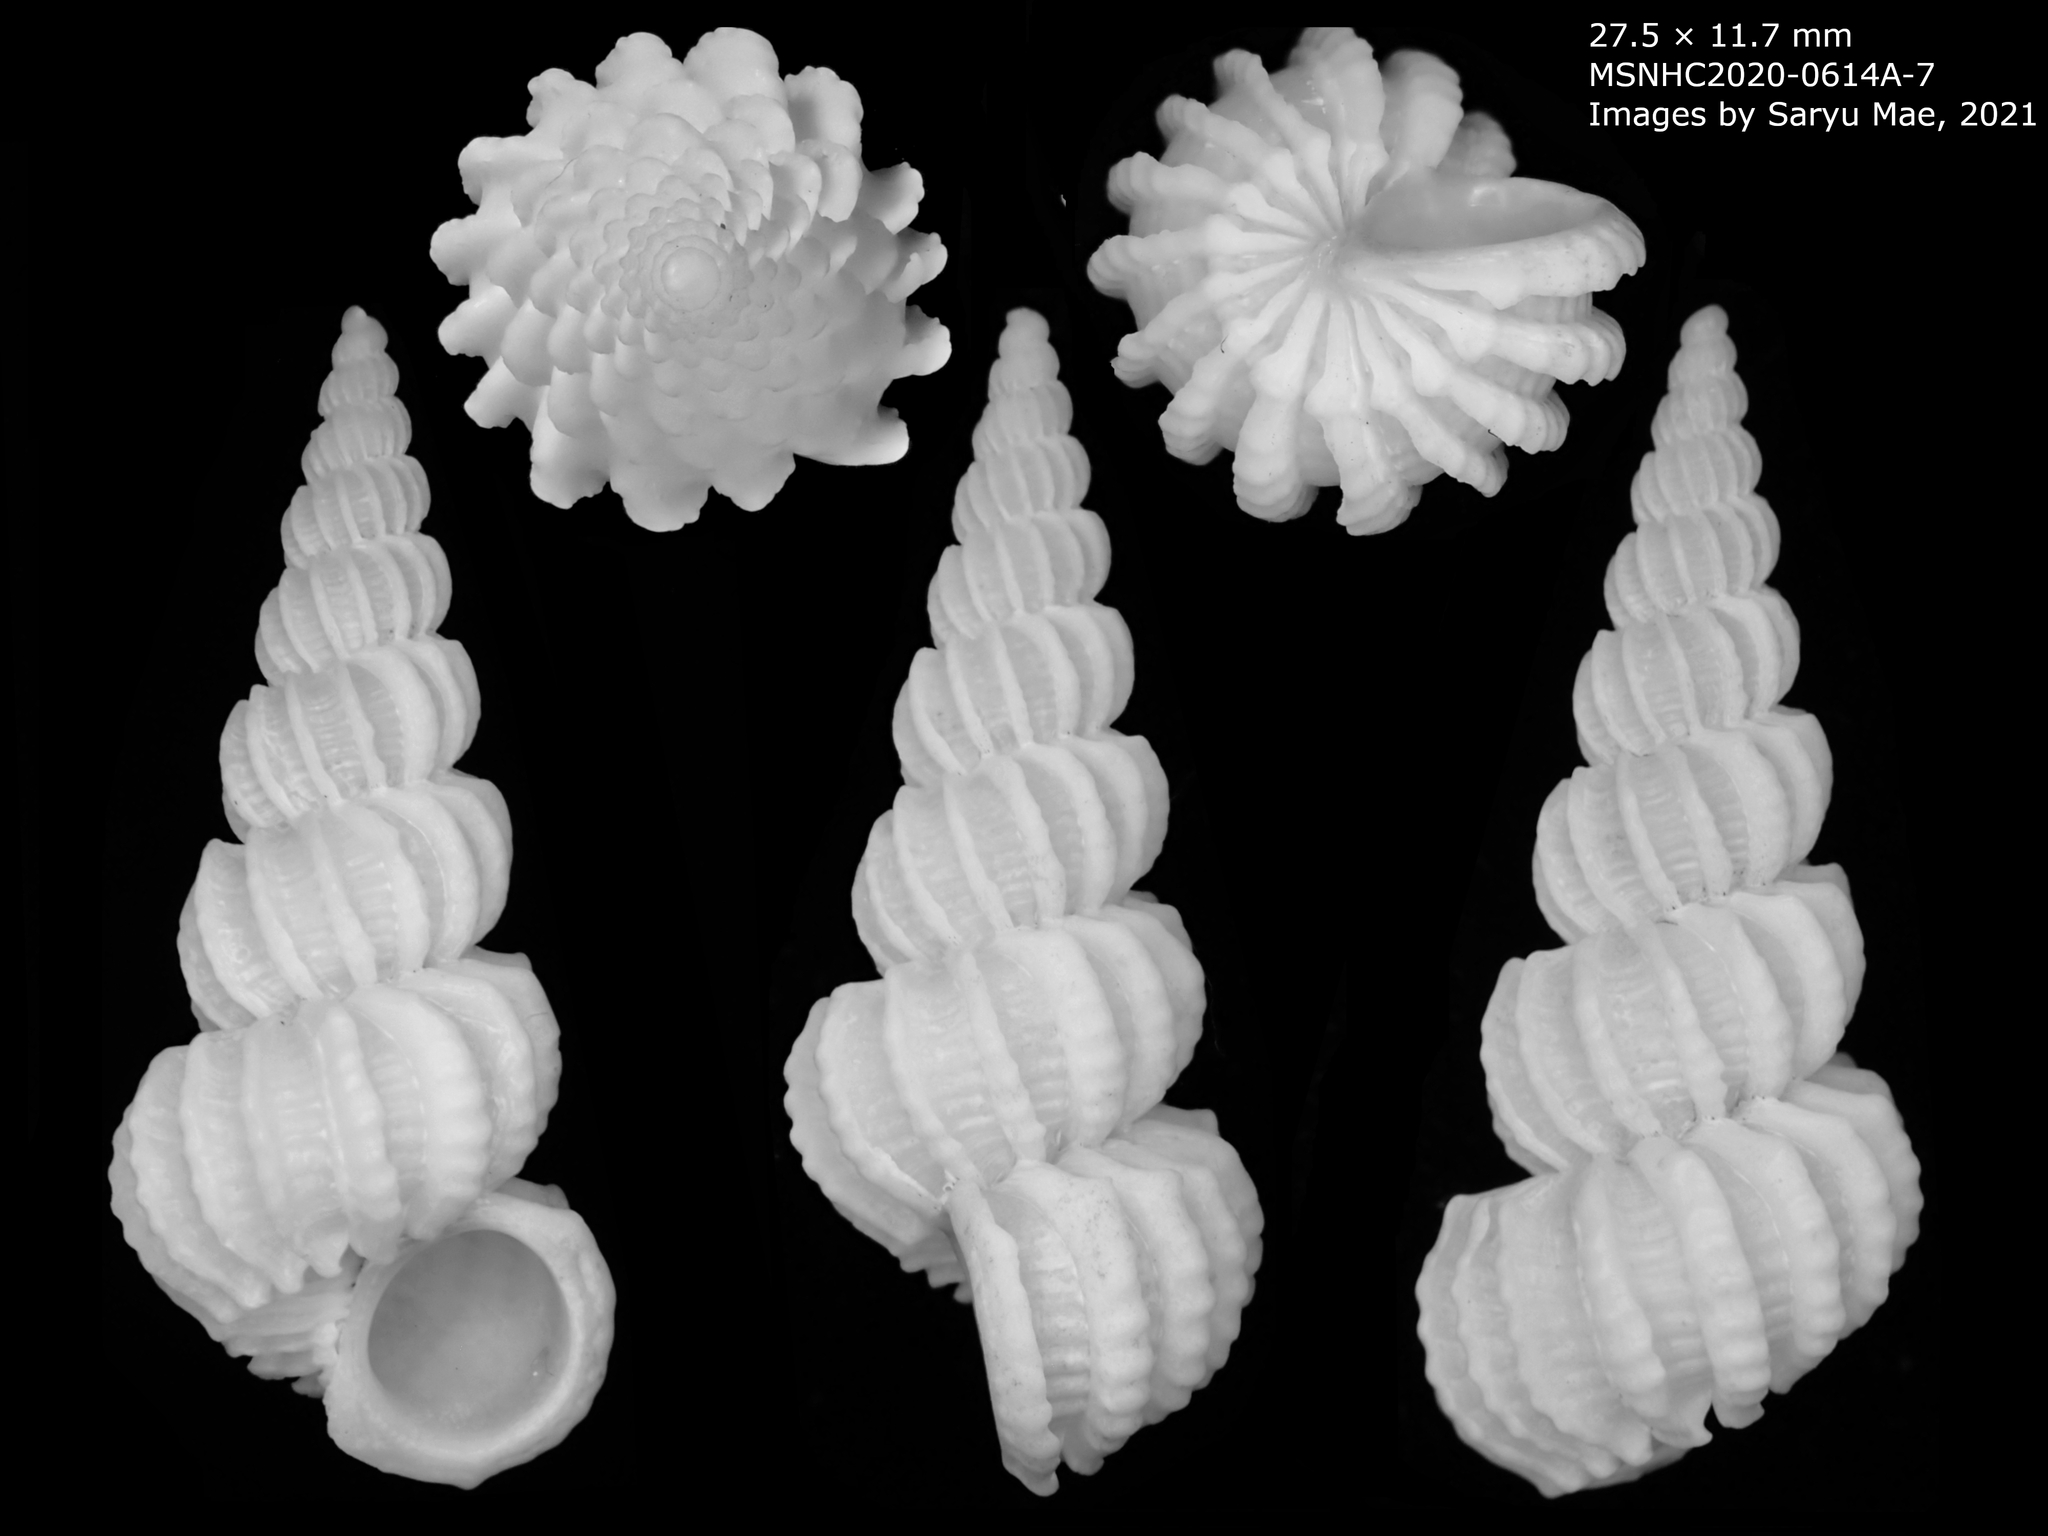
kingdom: Animalia
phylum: Mollusca
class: Gastropoda
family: Epitoniidae
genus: Cirsotrema
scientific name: Cirsotrema zelebori
